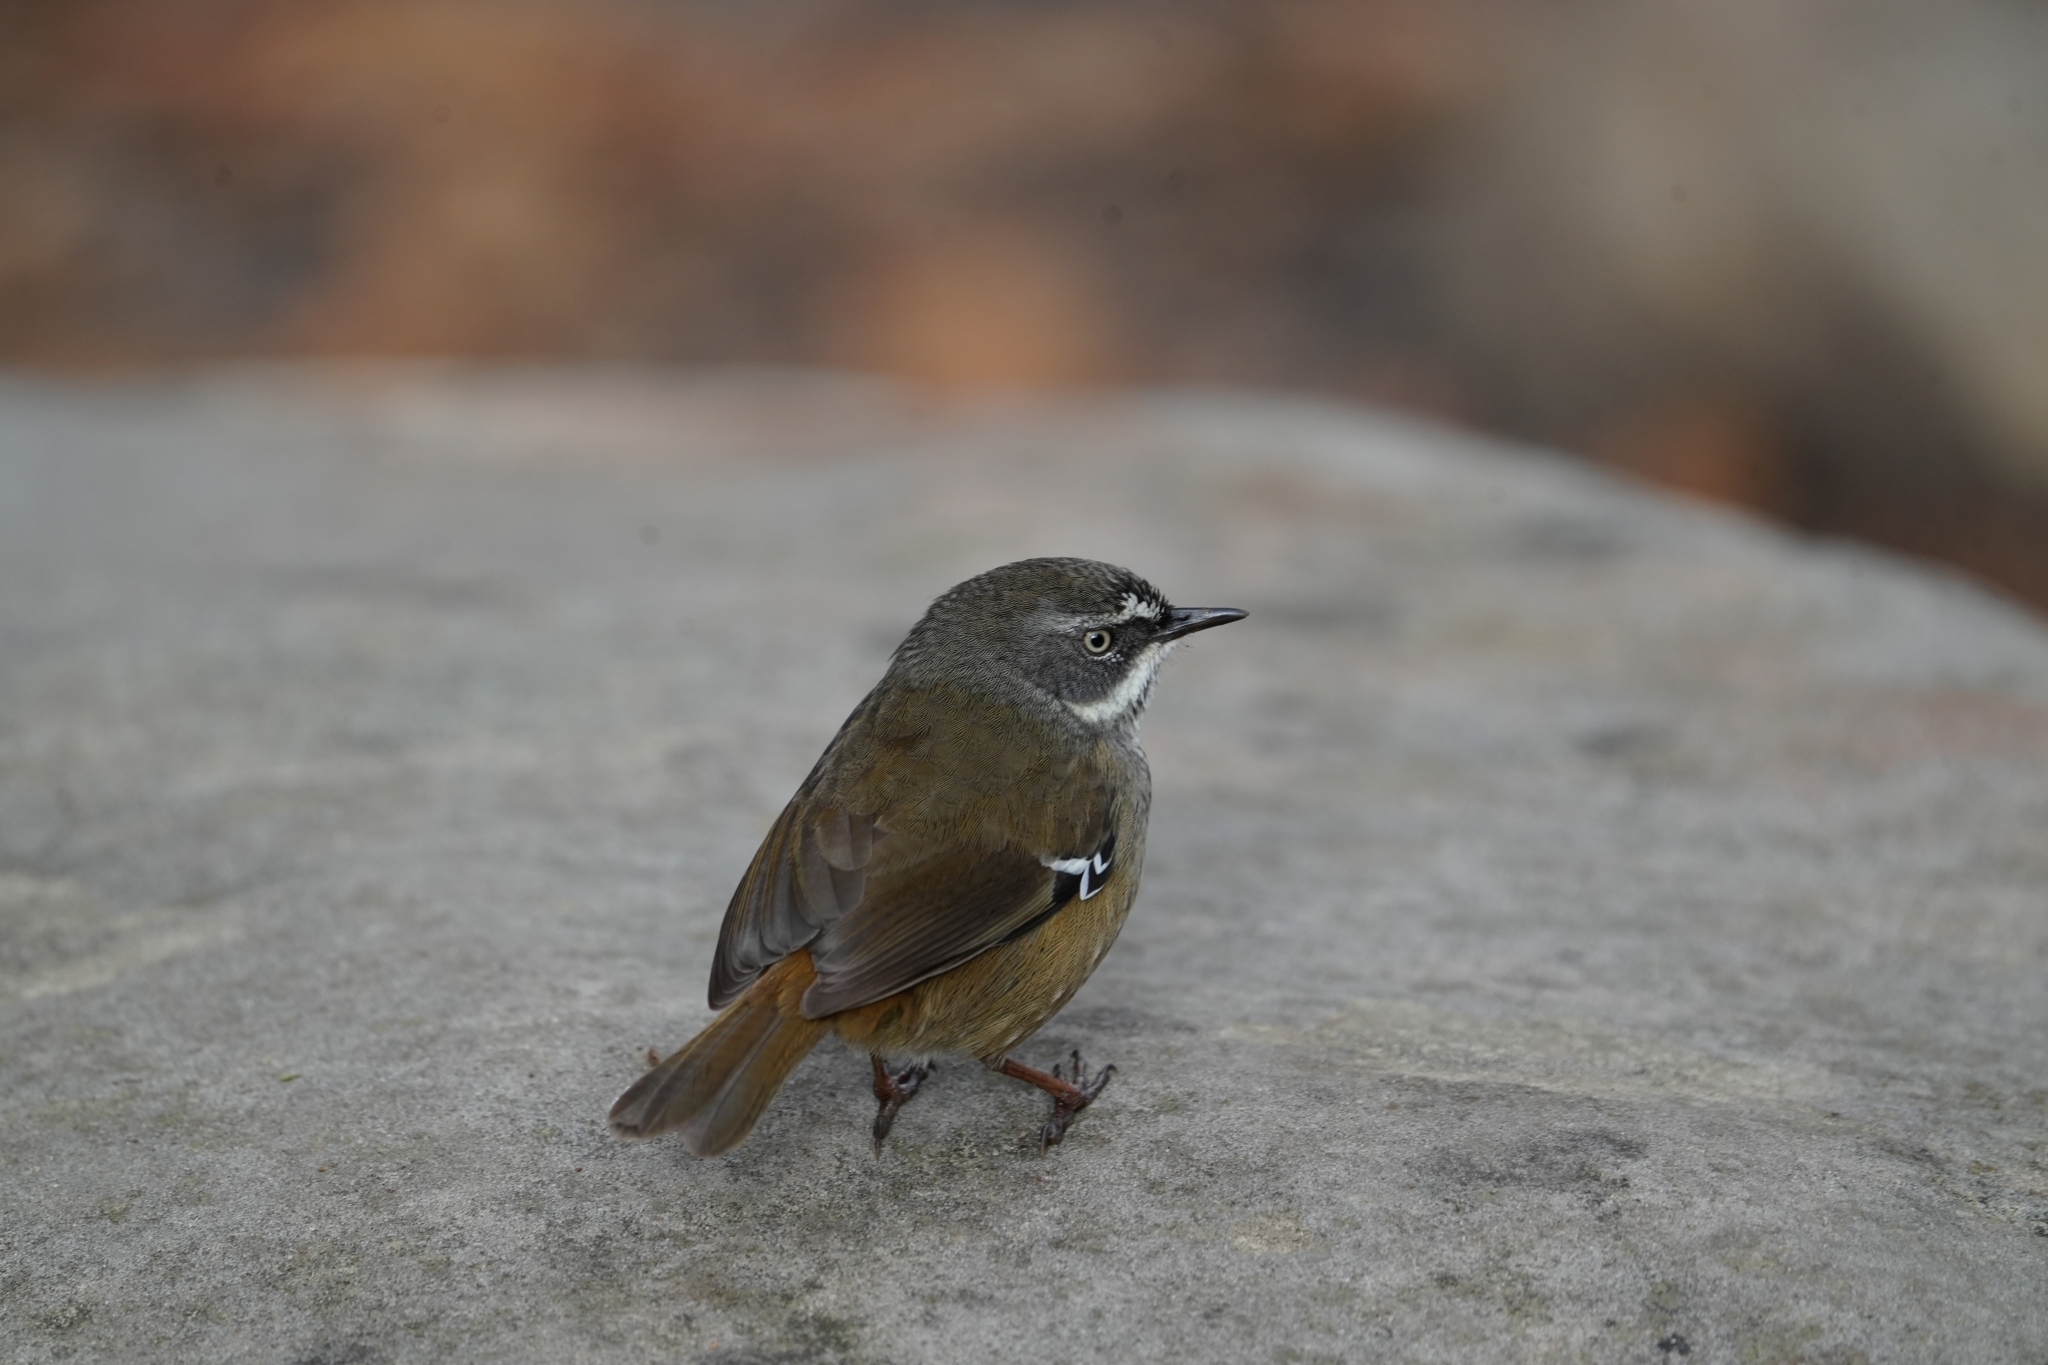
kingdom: Animalia
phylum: Chordata
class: Aves
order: Passeriformes
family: Acanthizidae
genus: Sericornis
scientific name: Sericornis frontalis
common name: White-browed scrubwren
